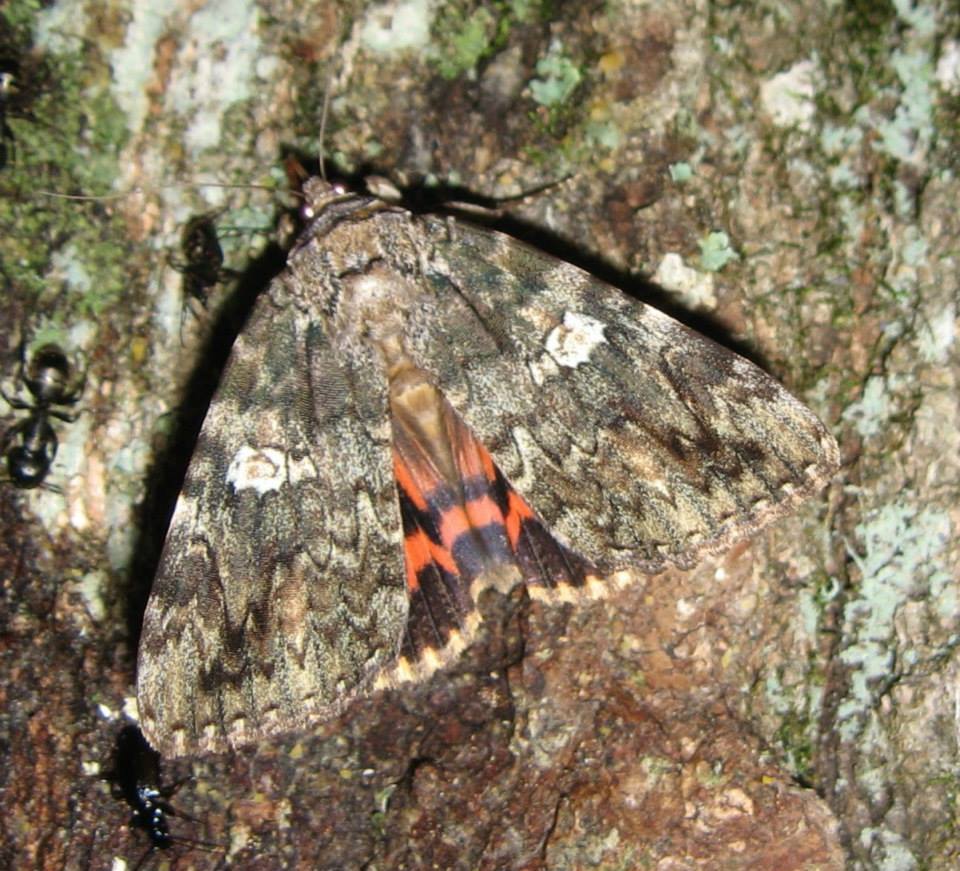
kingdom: Animalia
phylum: Arthropoda
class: Insecta
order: Lepidoptera
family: Erebidae
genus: Catocala
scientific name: Catocala ilia
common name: Ilia underwing
